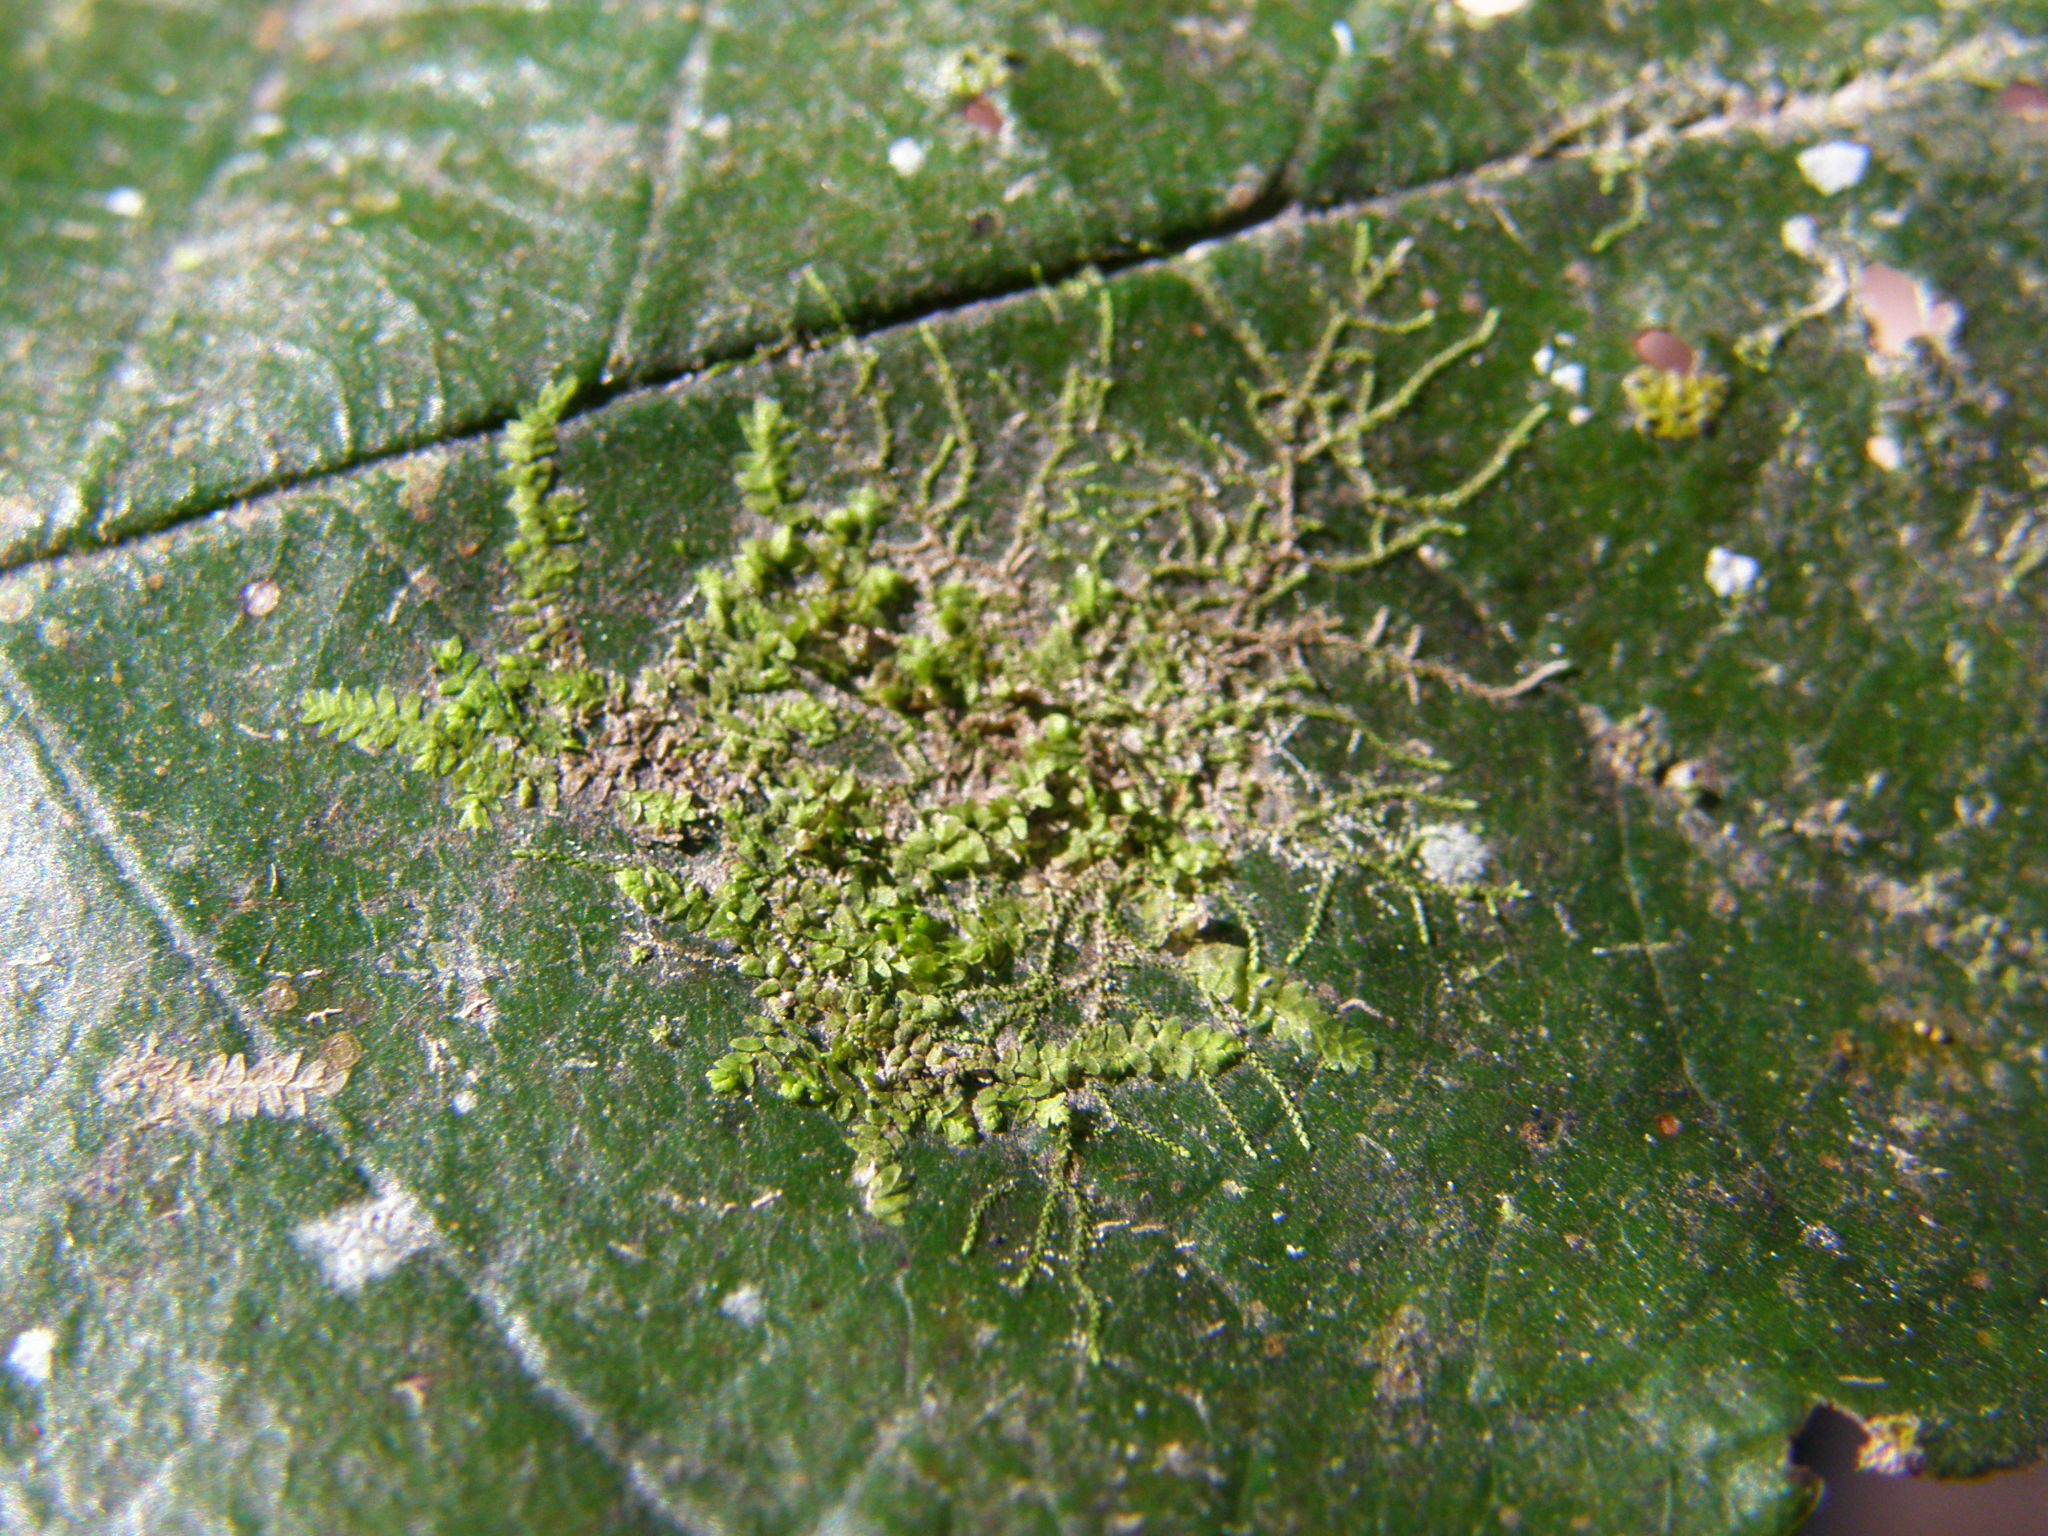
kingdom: Plantae
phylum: Marchantiophyta
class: Jungermanniopsida
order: Porellales
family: Lejeuneaceae
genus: Cololejeunea
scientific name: Cololejeunea
